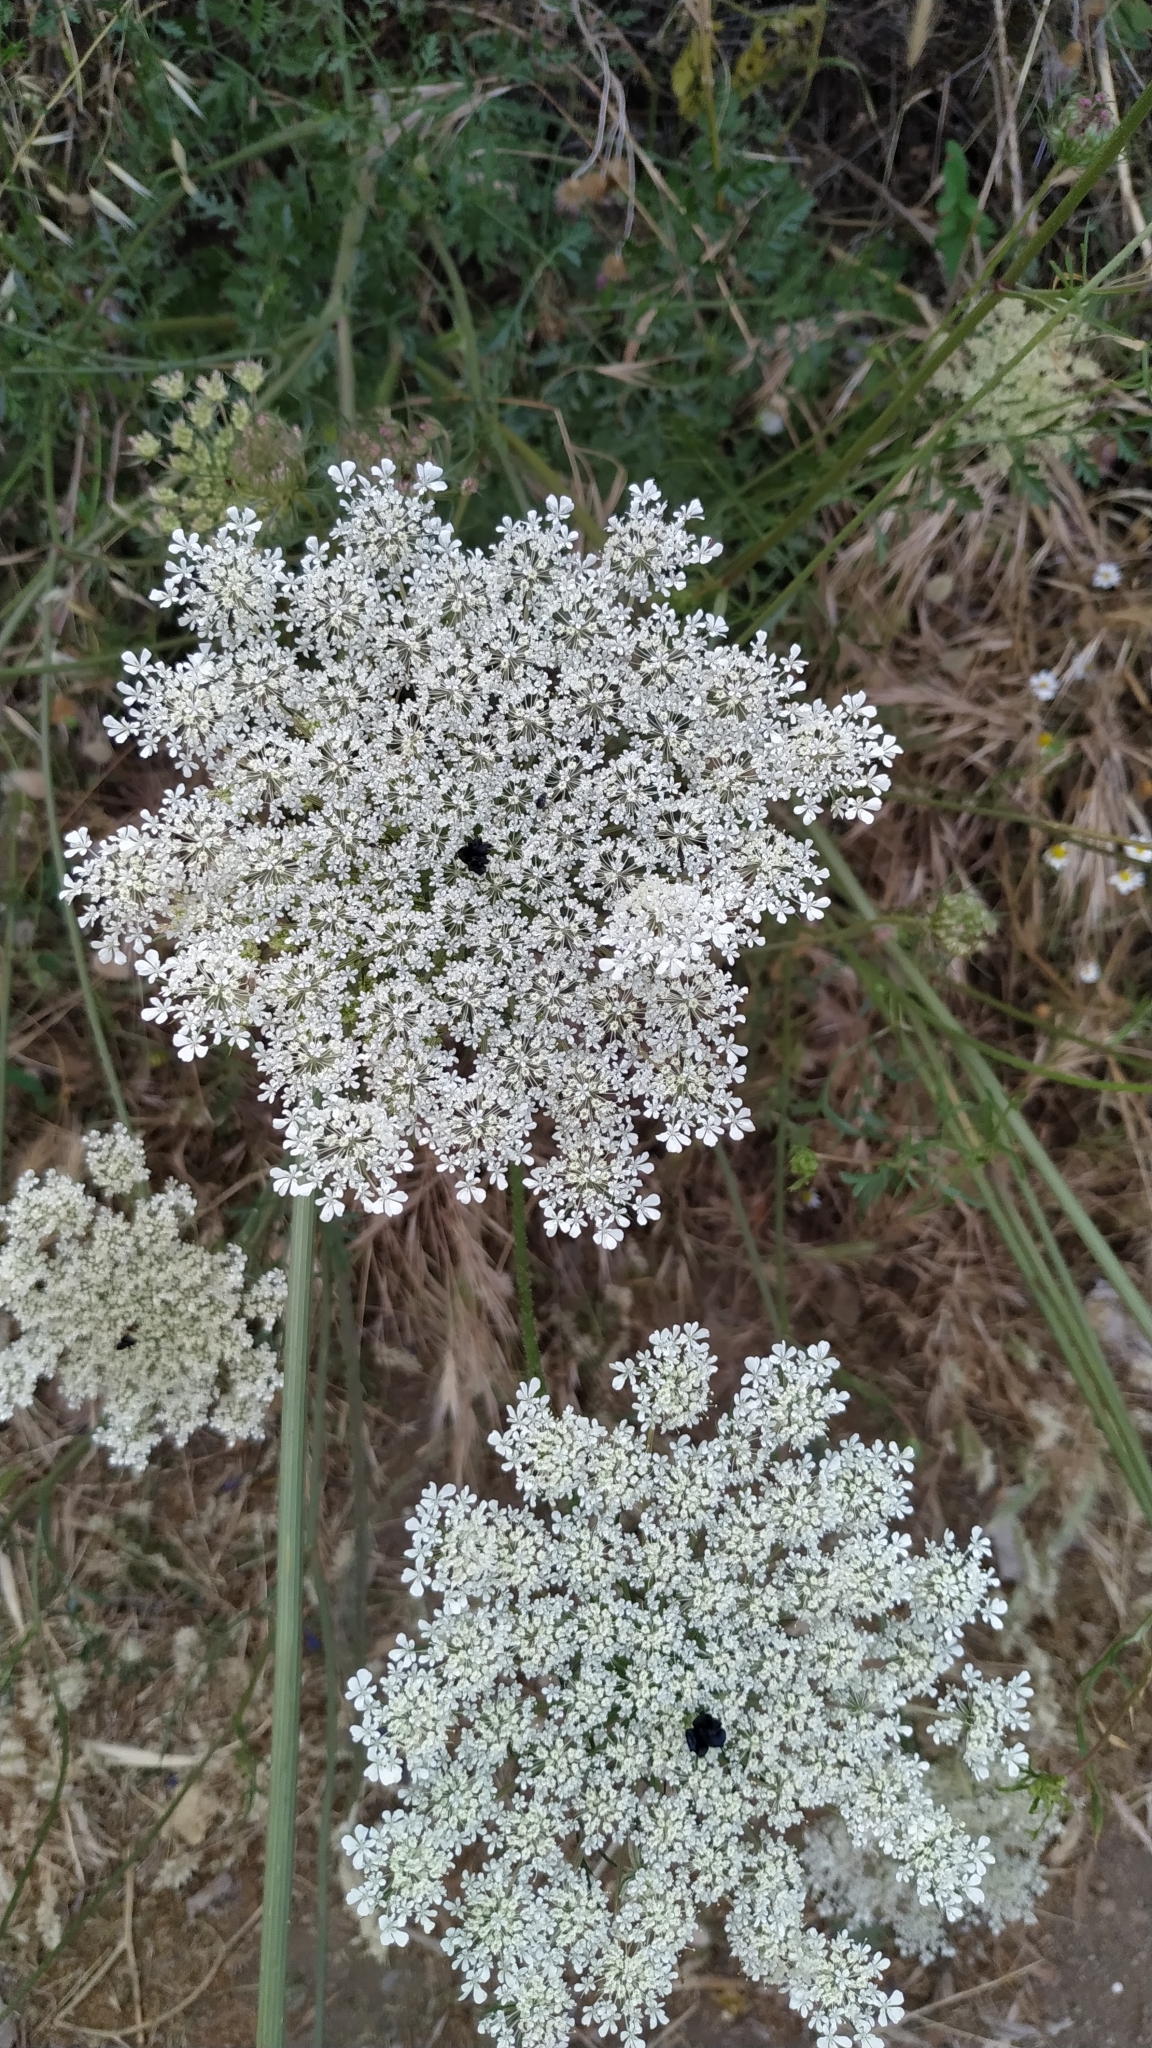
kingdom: Plantae
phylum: Tracheophyta
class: Magnoliopsida
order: Apiales
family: Apiaceae
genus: Daucus
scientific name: Daucus carota
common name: Wild carrot
